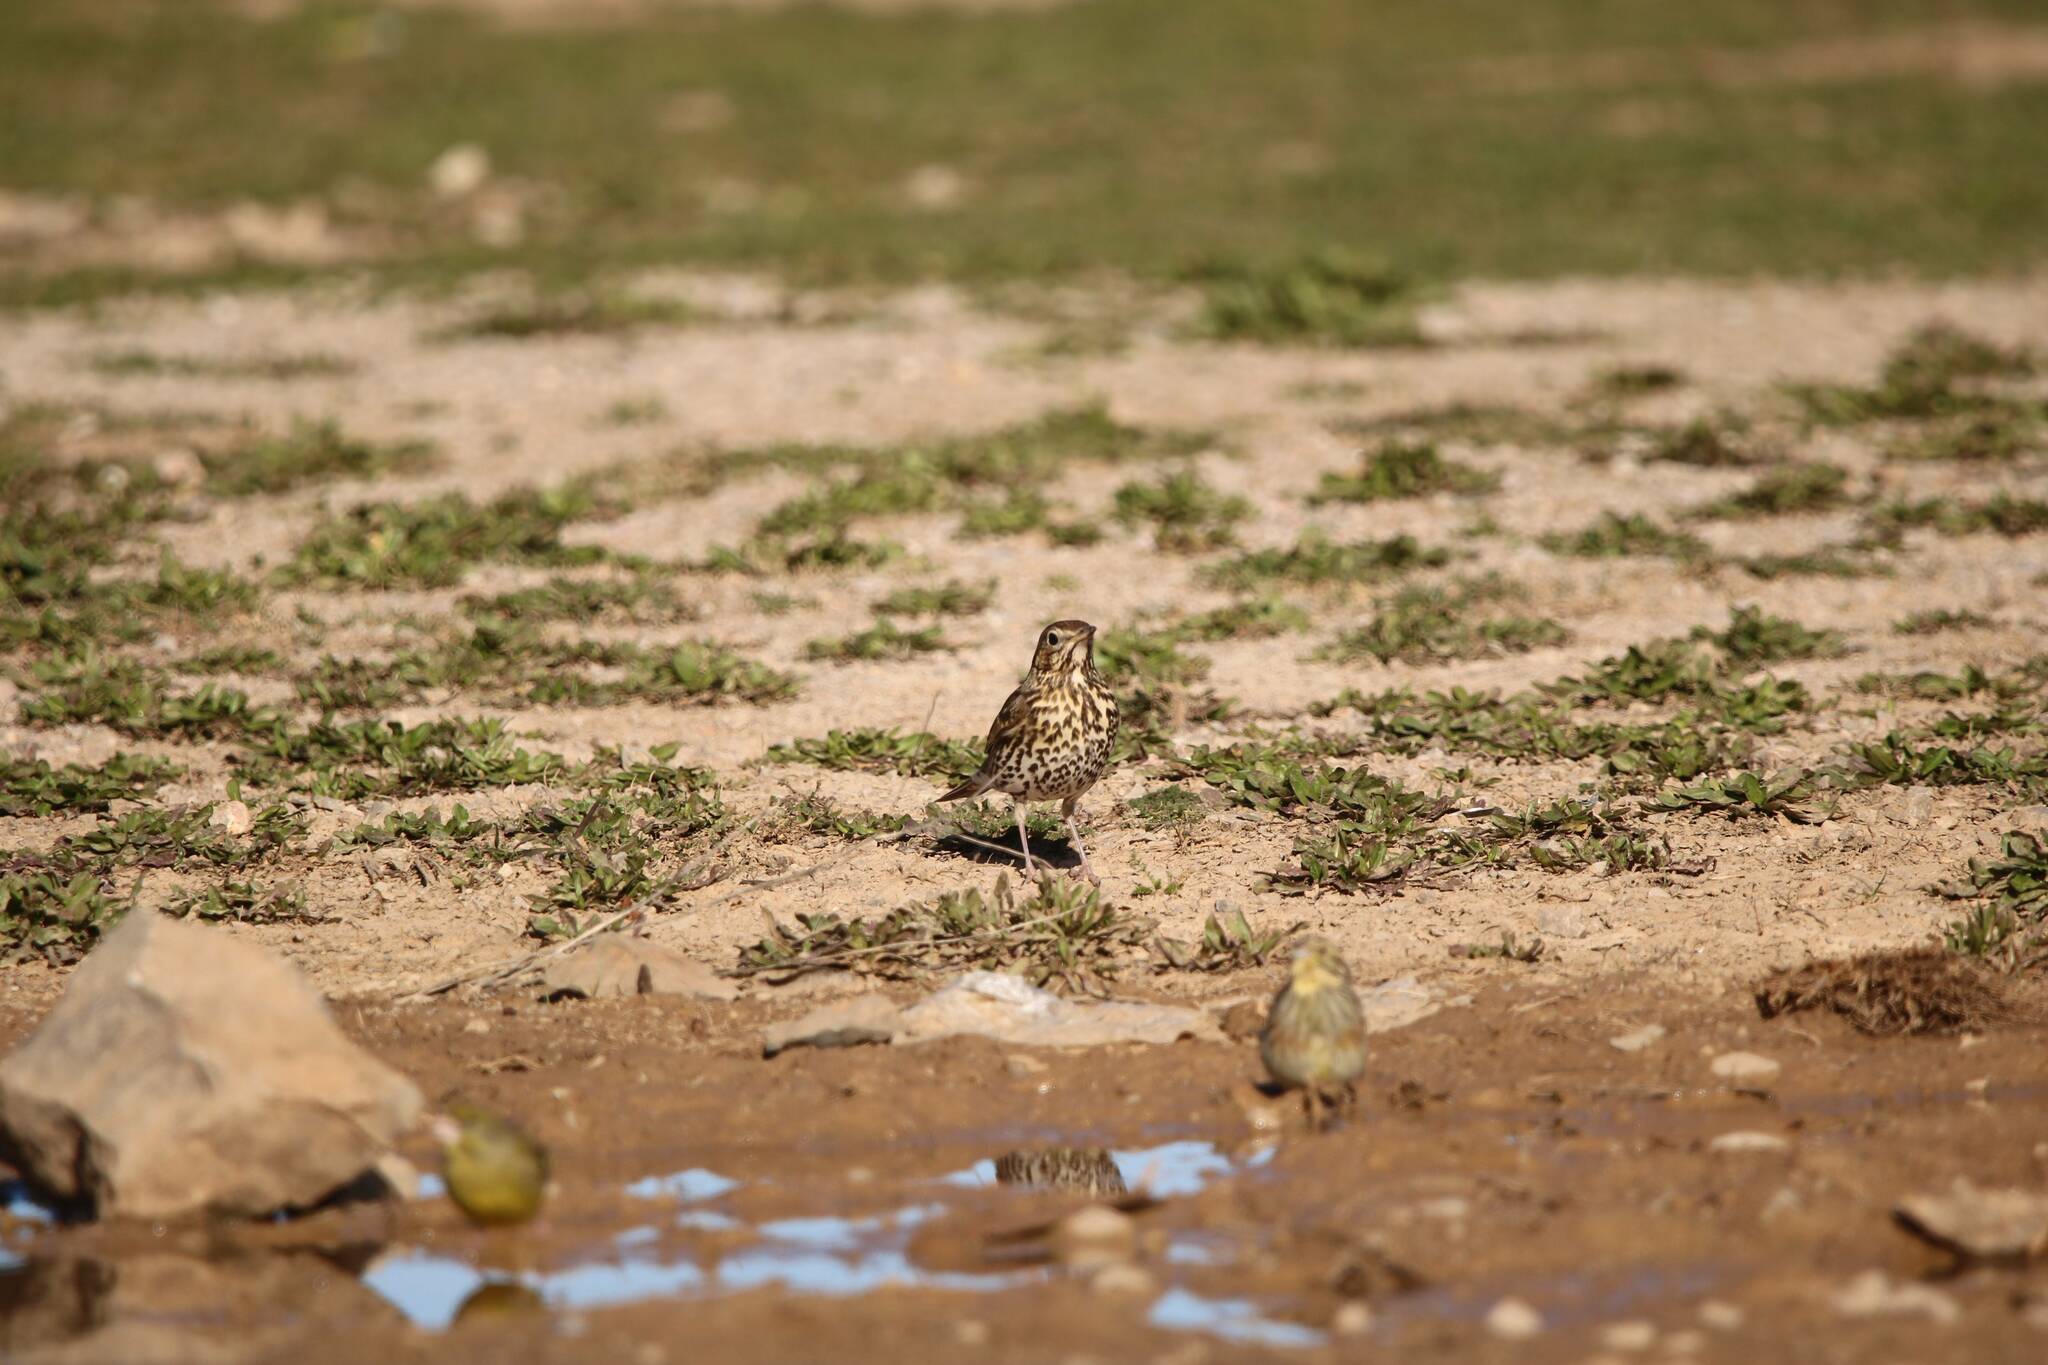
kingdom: Animalia
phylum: Chordata
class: Aves
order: Passeriformes
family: Turdidae
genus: Turdus
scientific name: Turdus philomelos
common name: Song thrush
